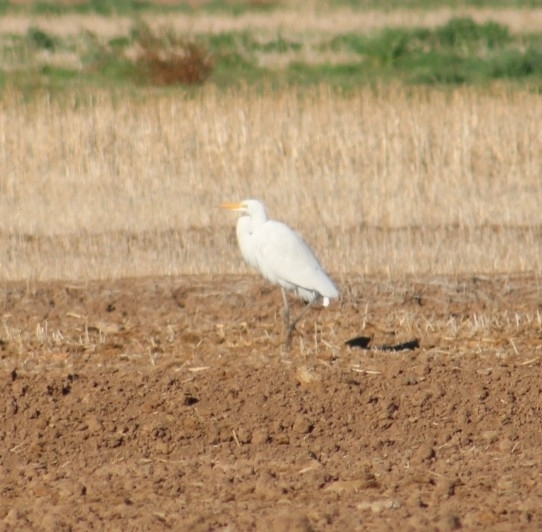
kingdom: Animalia
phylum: Chordata
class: Aves
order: Pelecaniformes
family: Ardeidae
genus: Ardea
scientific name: Ardea alba
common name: Great egret
